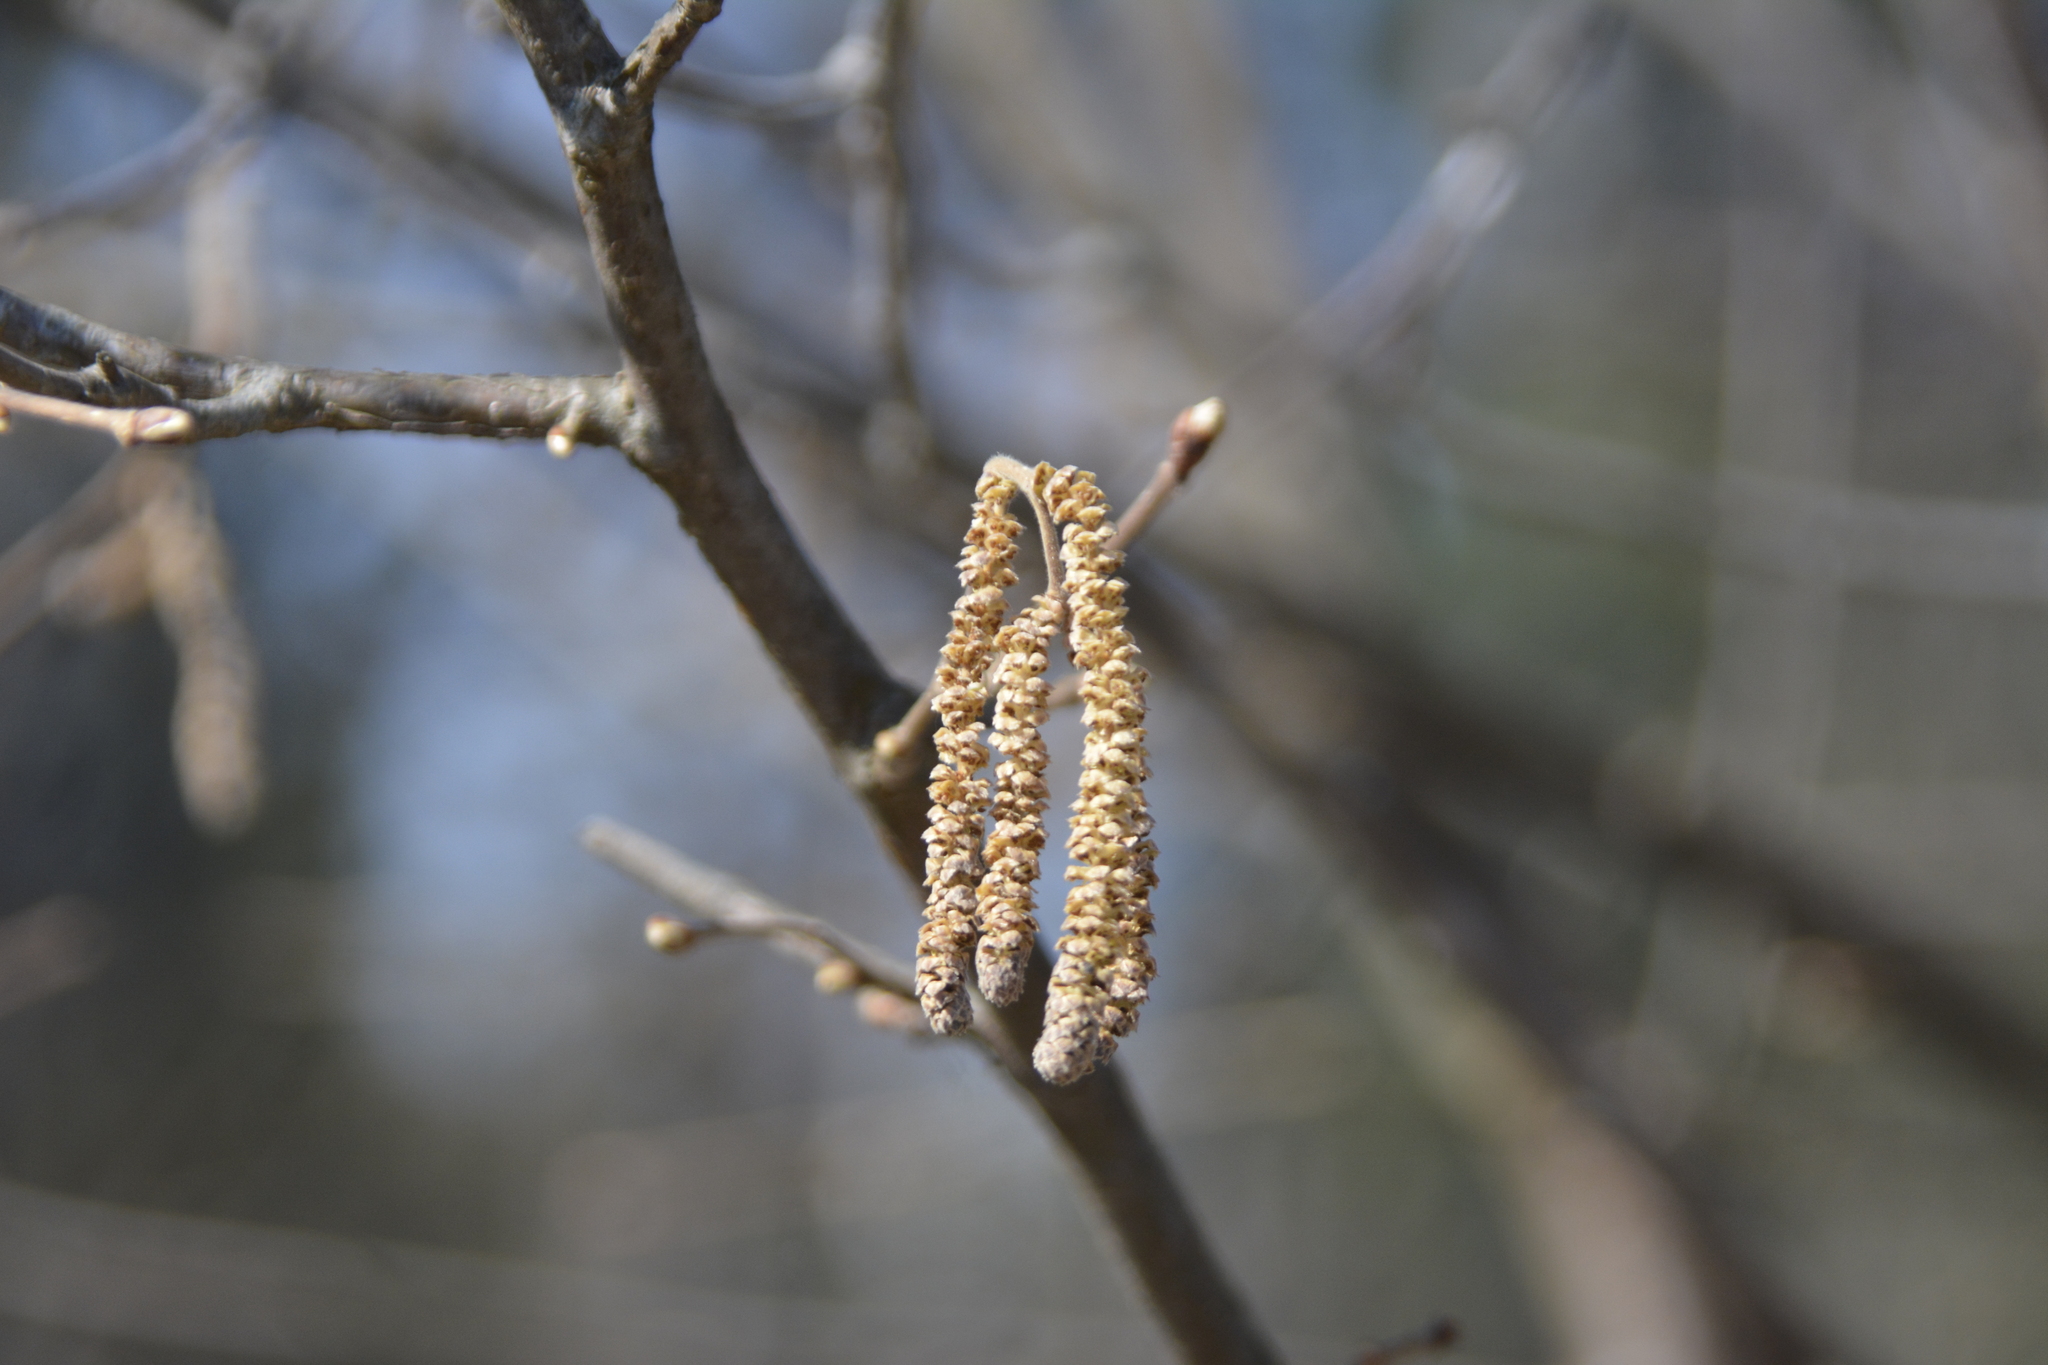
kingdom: Plantae
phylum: Tracheophyta
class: Magnoliopsida
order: Fagales
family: Betulaceae
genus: Corylus
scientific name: Corylus avellana
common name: European hazel
